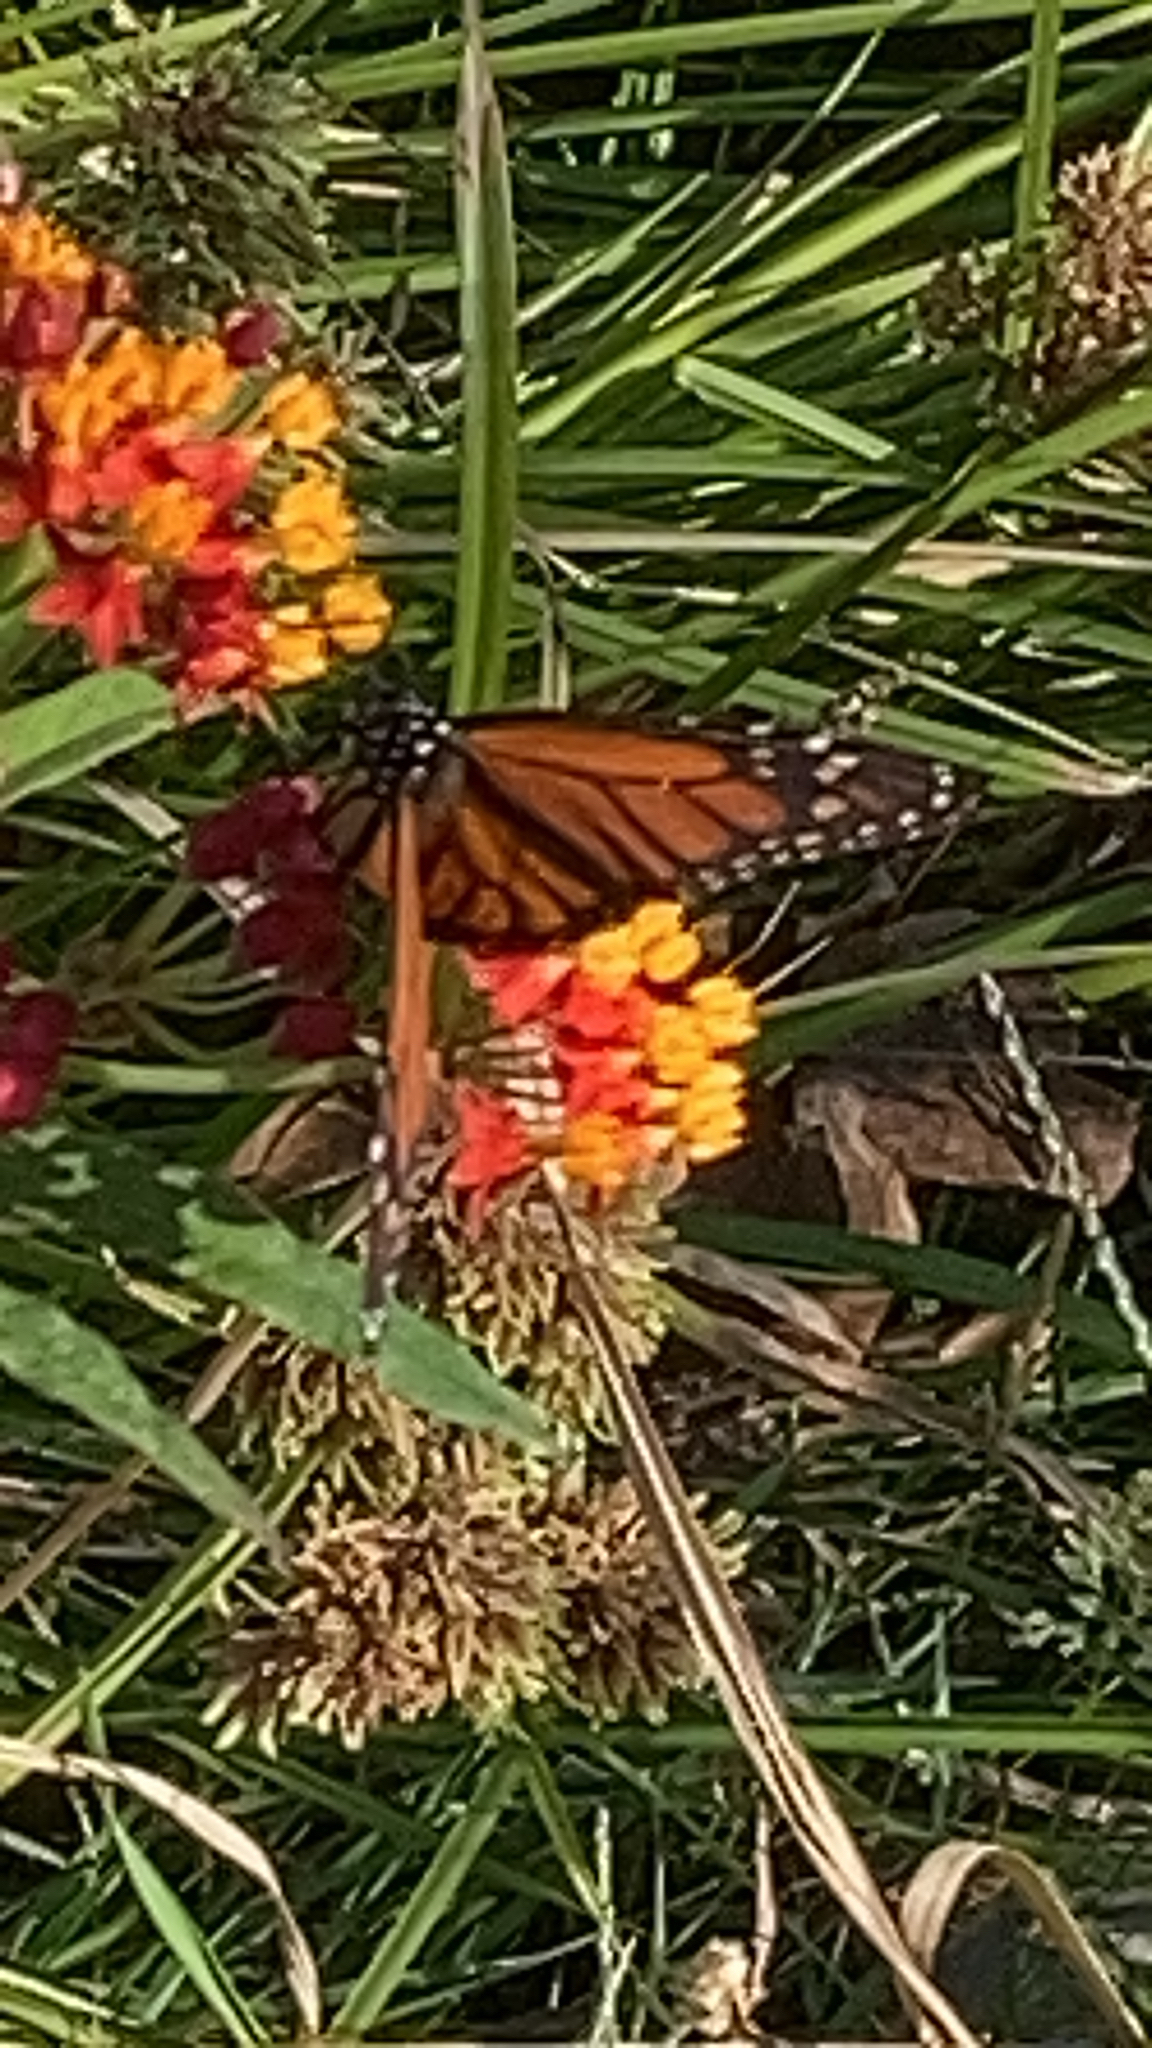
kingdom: Animalia
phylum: Arthropoda
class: Insecta
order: Lepidoptera
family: Nymphalidae
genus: Danaus
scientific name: Danaus plexippus
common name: Monarch
